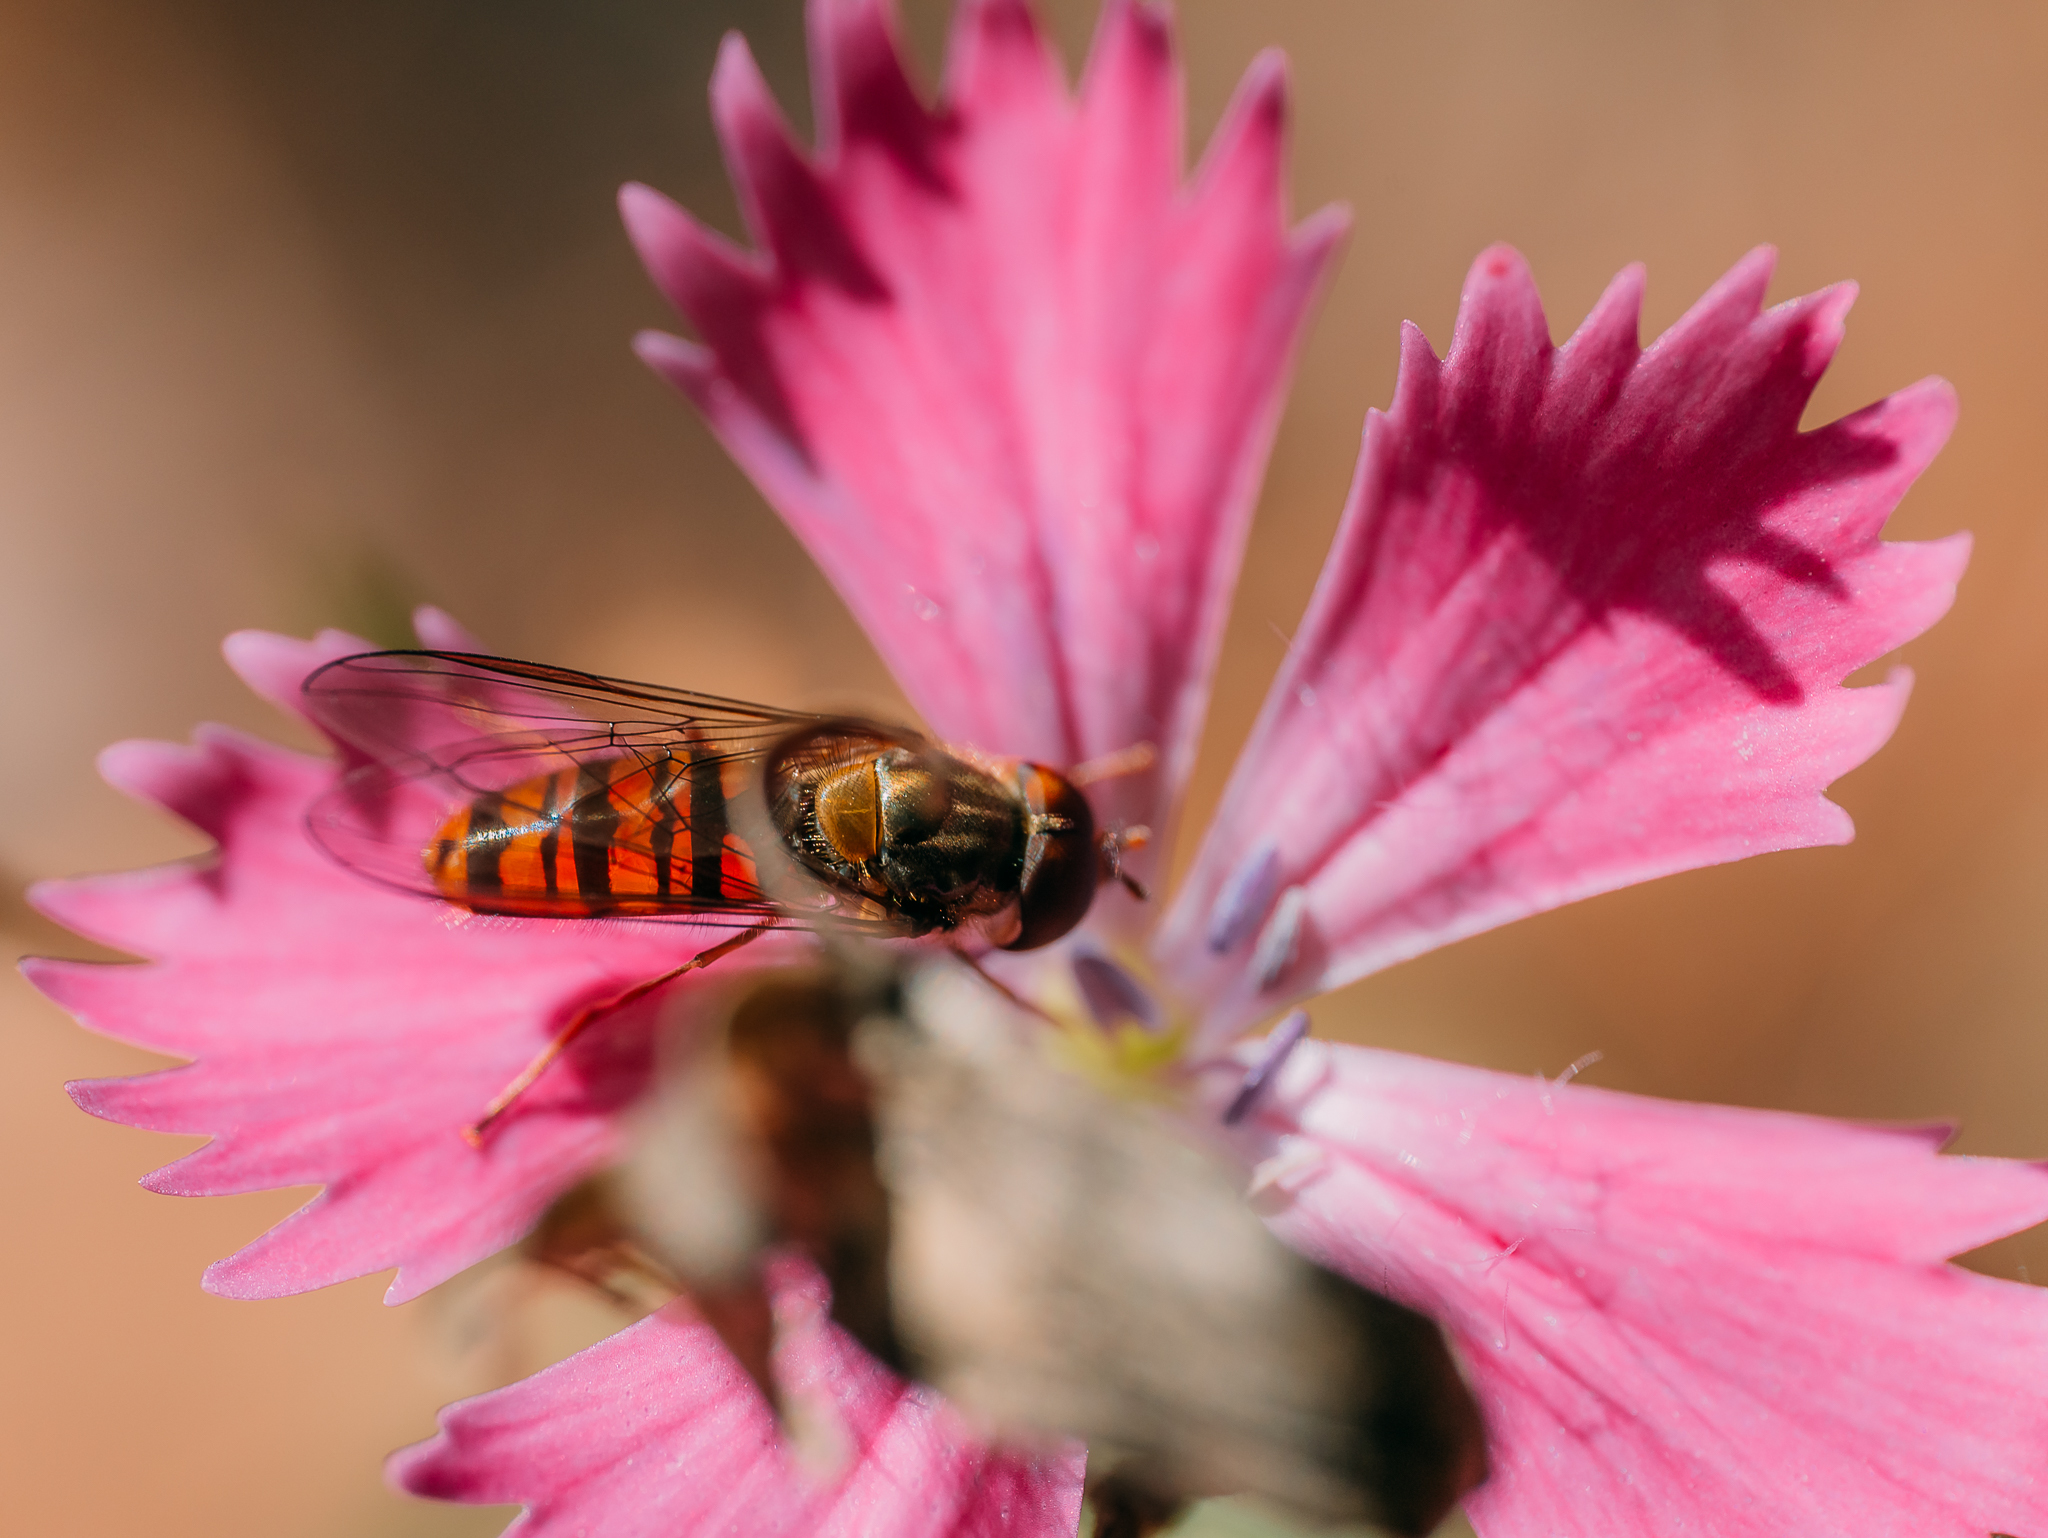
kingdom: Animalia
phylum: Arthropoda
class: Insecta
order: Diptera
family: Syrphidae
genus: Episyrphus
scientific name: Episyrphus balteatus
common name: Marmalade hoverfly
